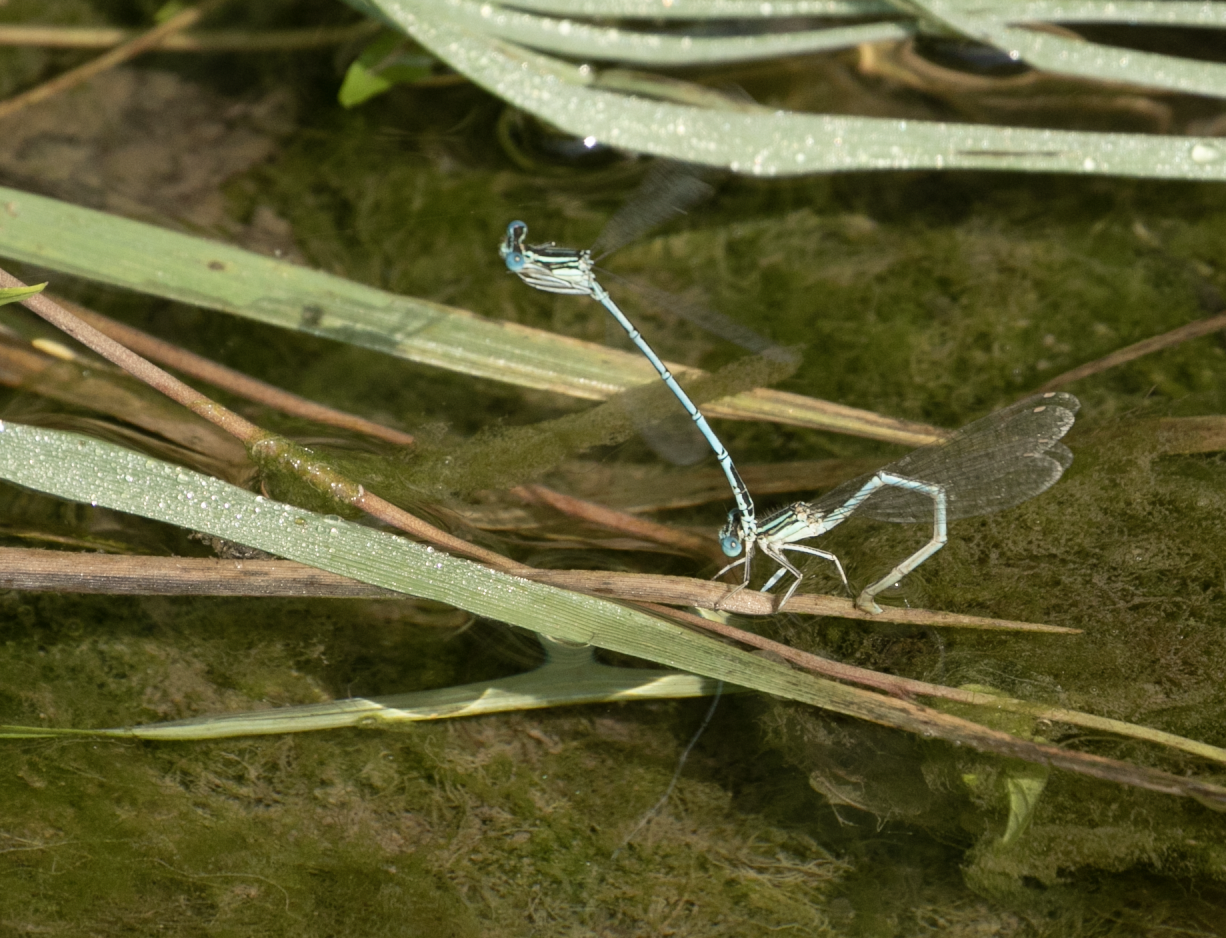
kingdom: Animalia
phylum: Arthropoda
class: Insecta
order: Odonata
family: Platycnemididae
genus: Platycnemis
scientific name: Platycnemis pennipes
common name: White-legged damselfly
